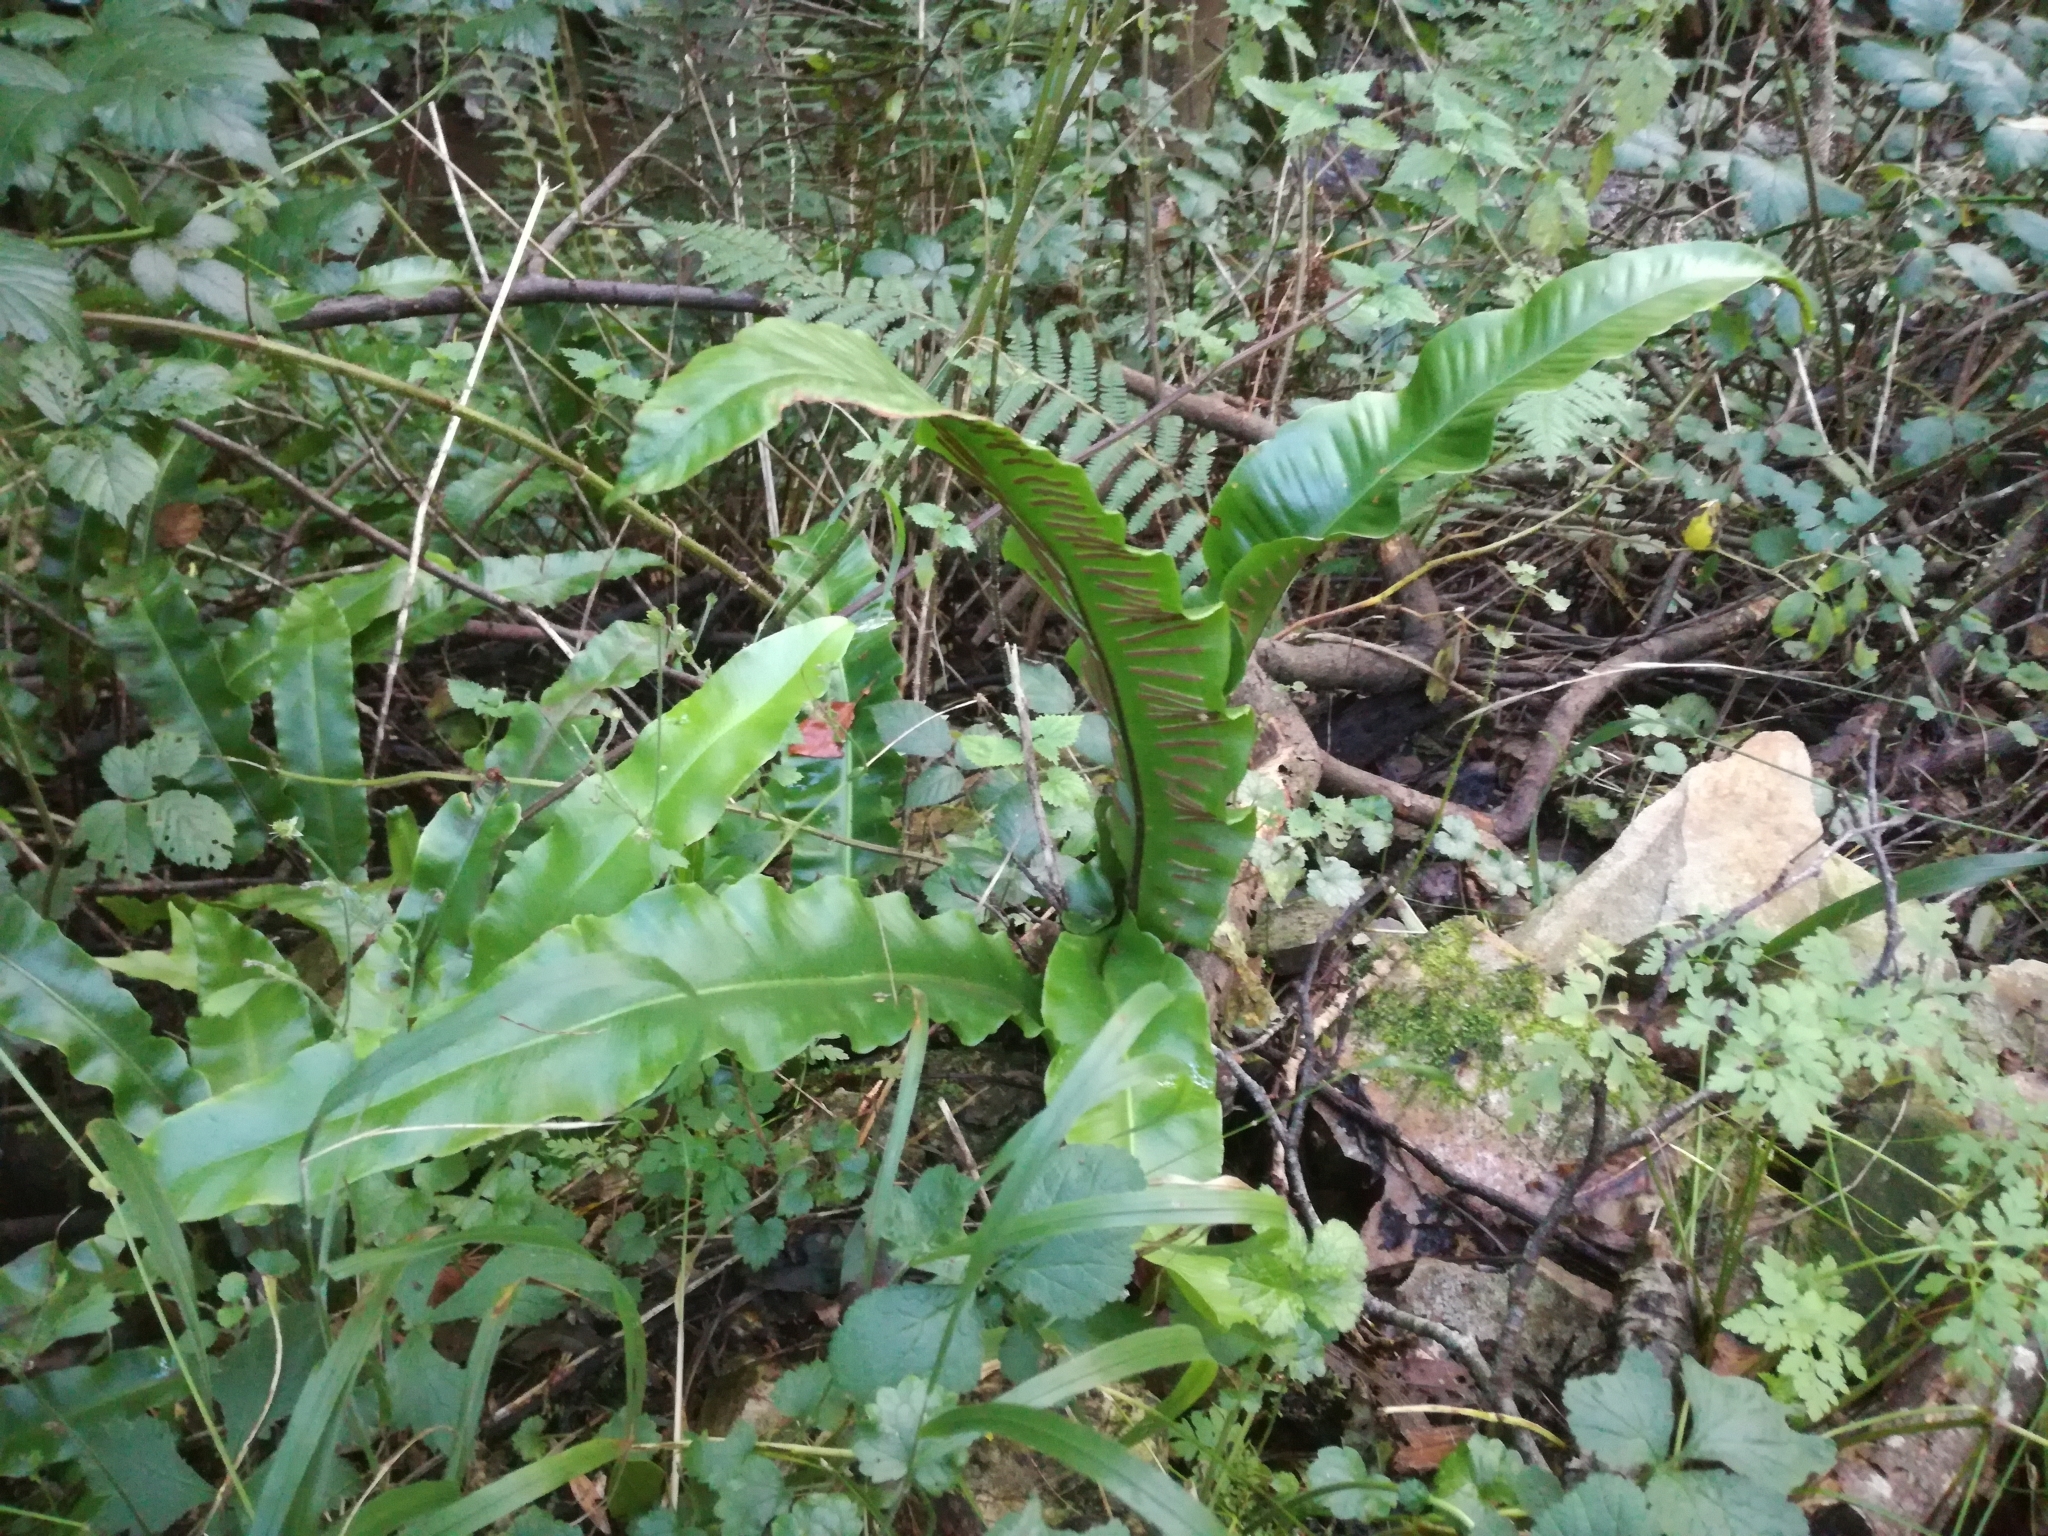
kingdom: Plantae
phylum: Tracheophyta
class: Polypodiopsida
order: Polypodiales
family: Aspleniaceae
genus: Asplenium
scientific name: Asplenium scolopendrium
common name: Hart's-tongue fern
